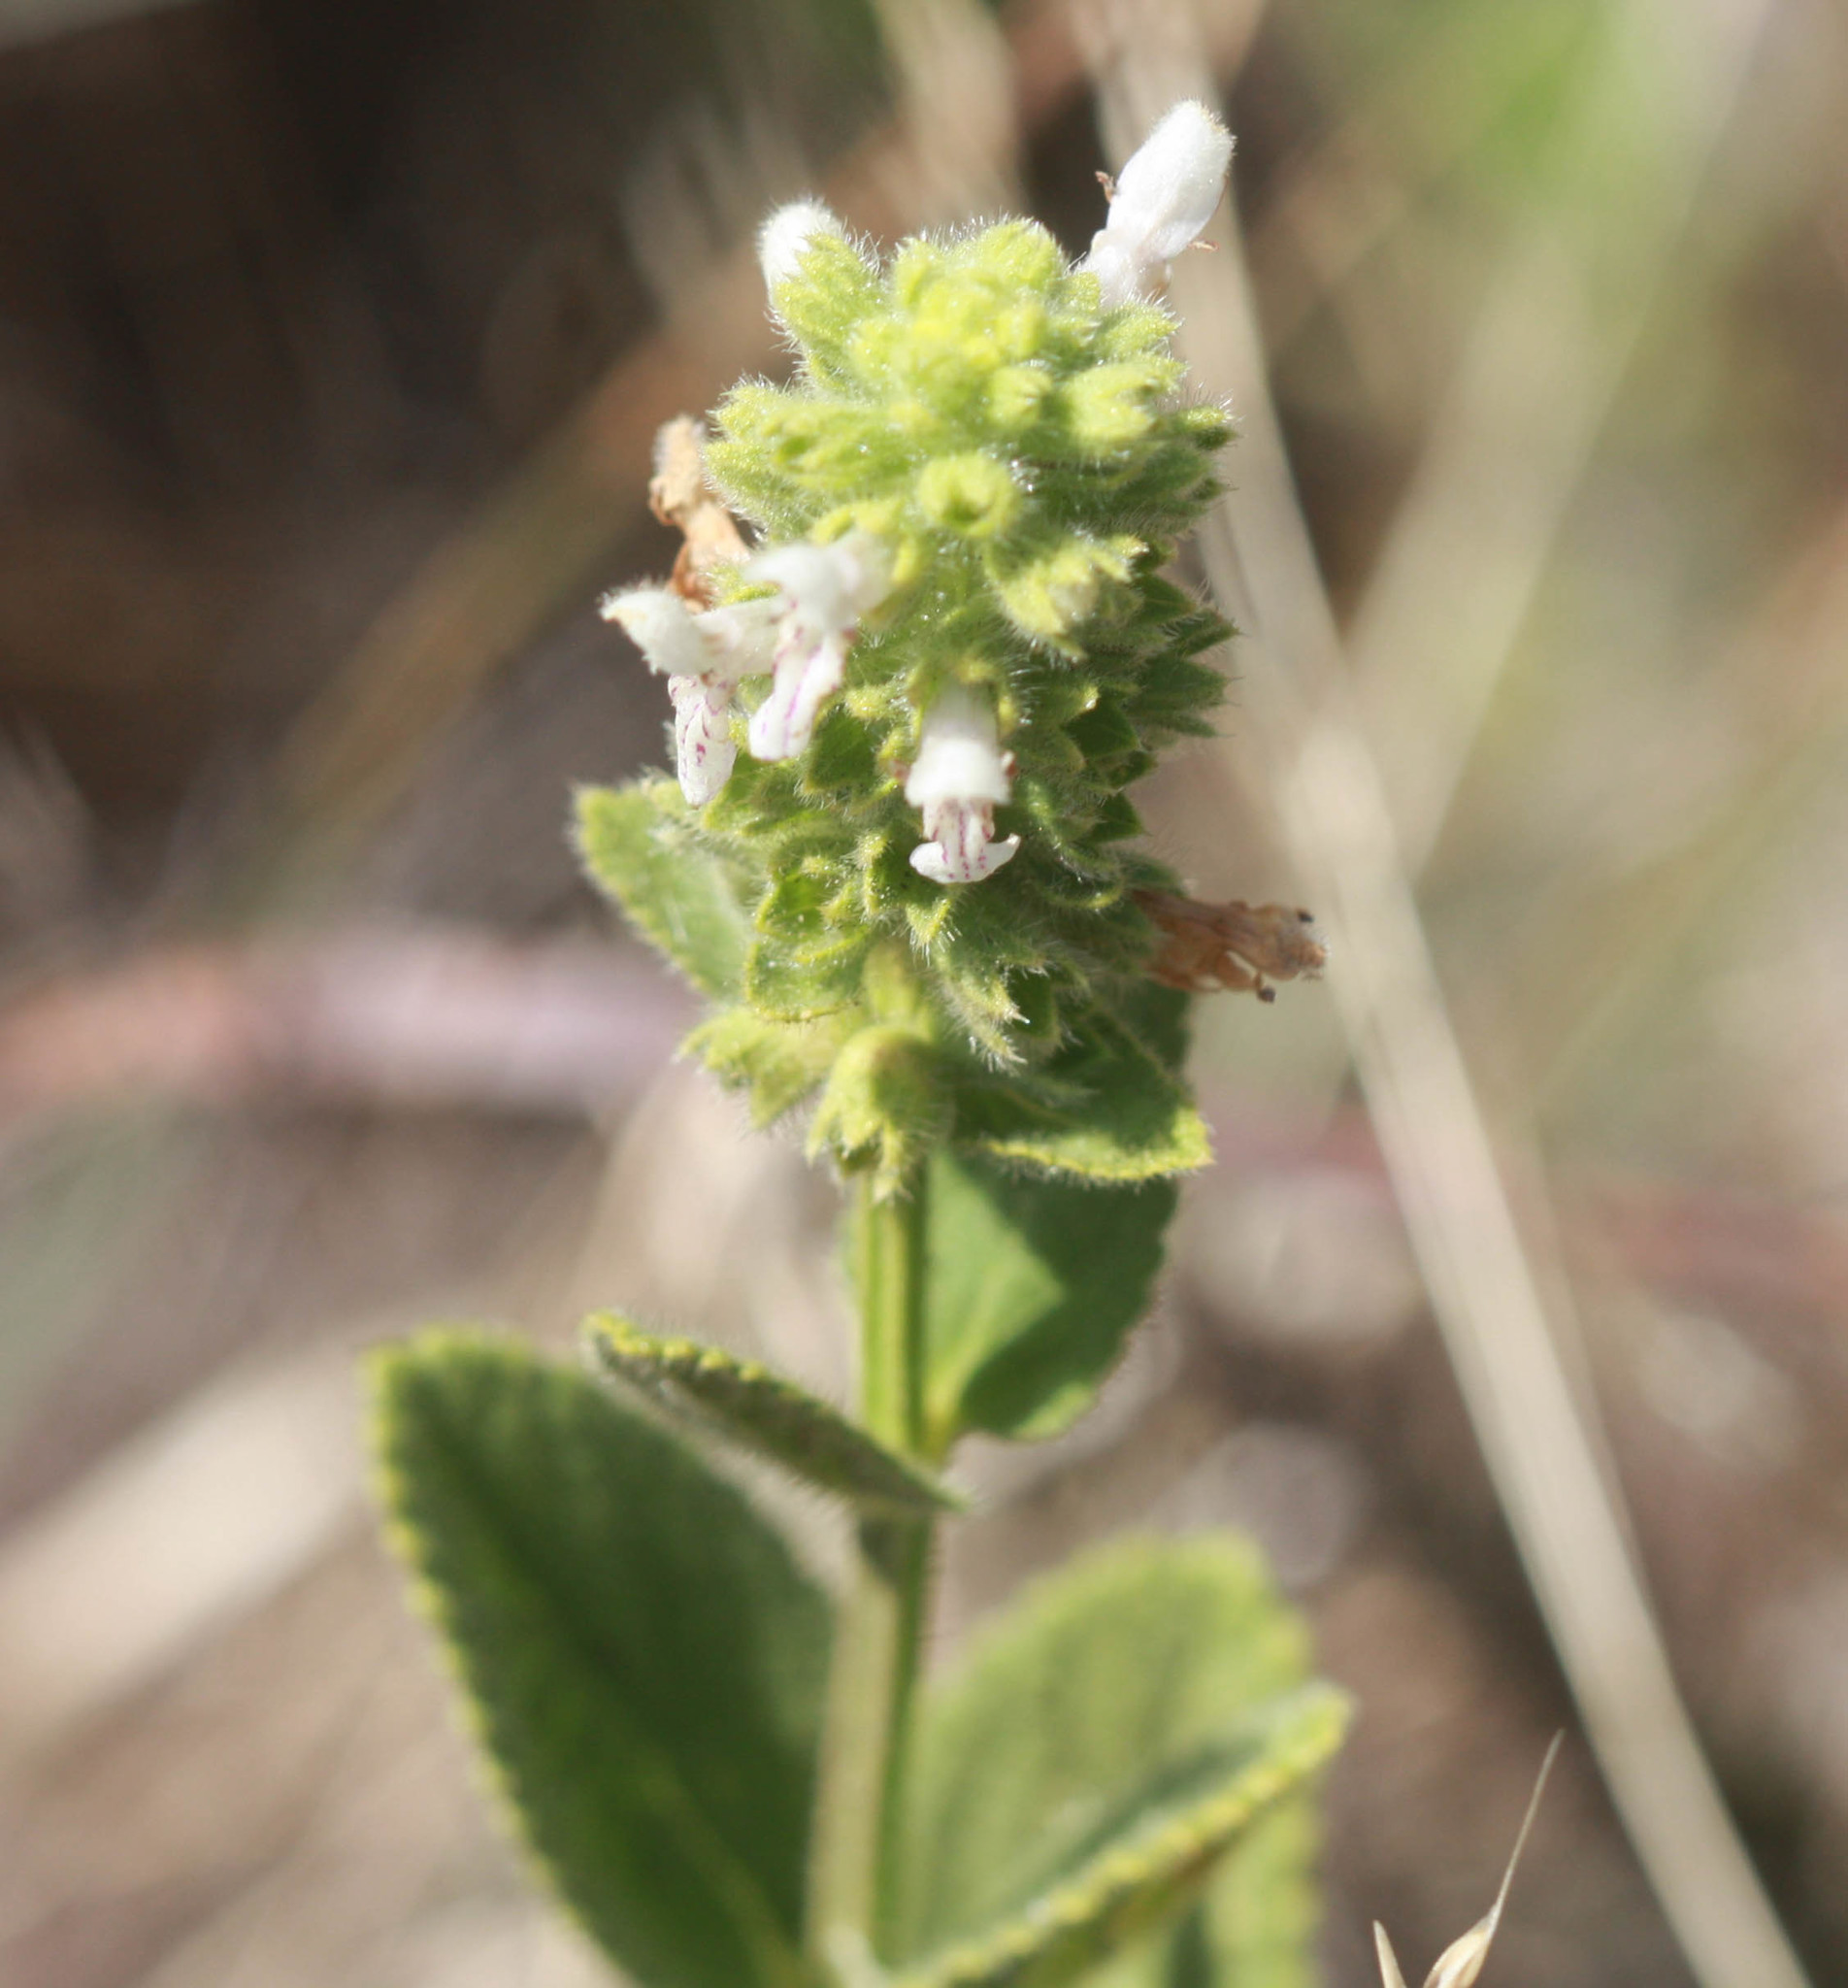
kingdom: Plantae
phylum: Tracheophyta
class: Magnoliopsida
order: Lamiales
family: Lamiaceae
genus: Stachys
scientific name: Stachys pycnantha
